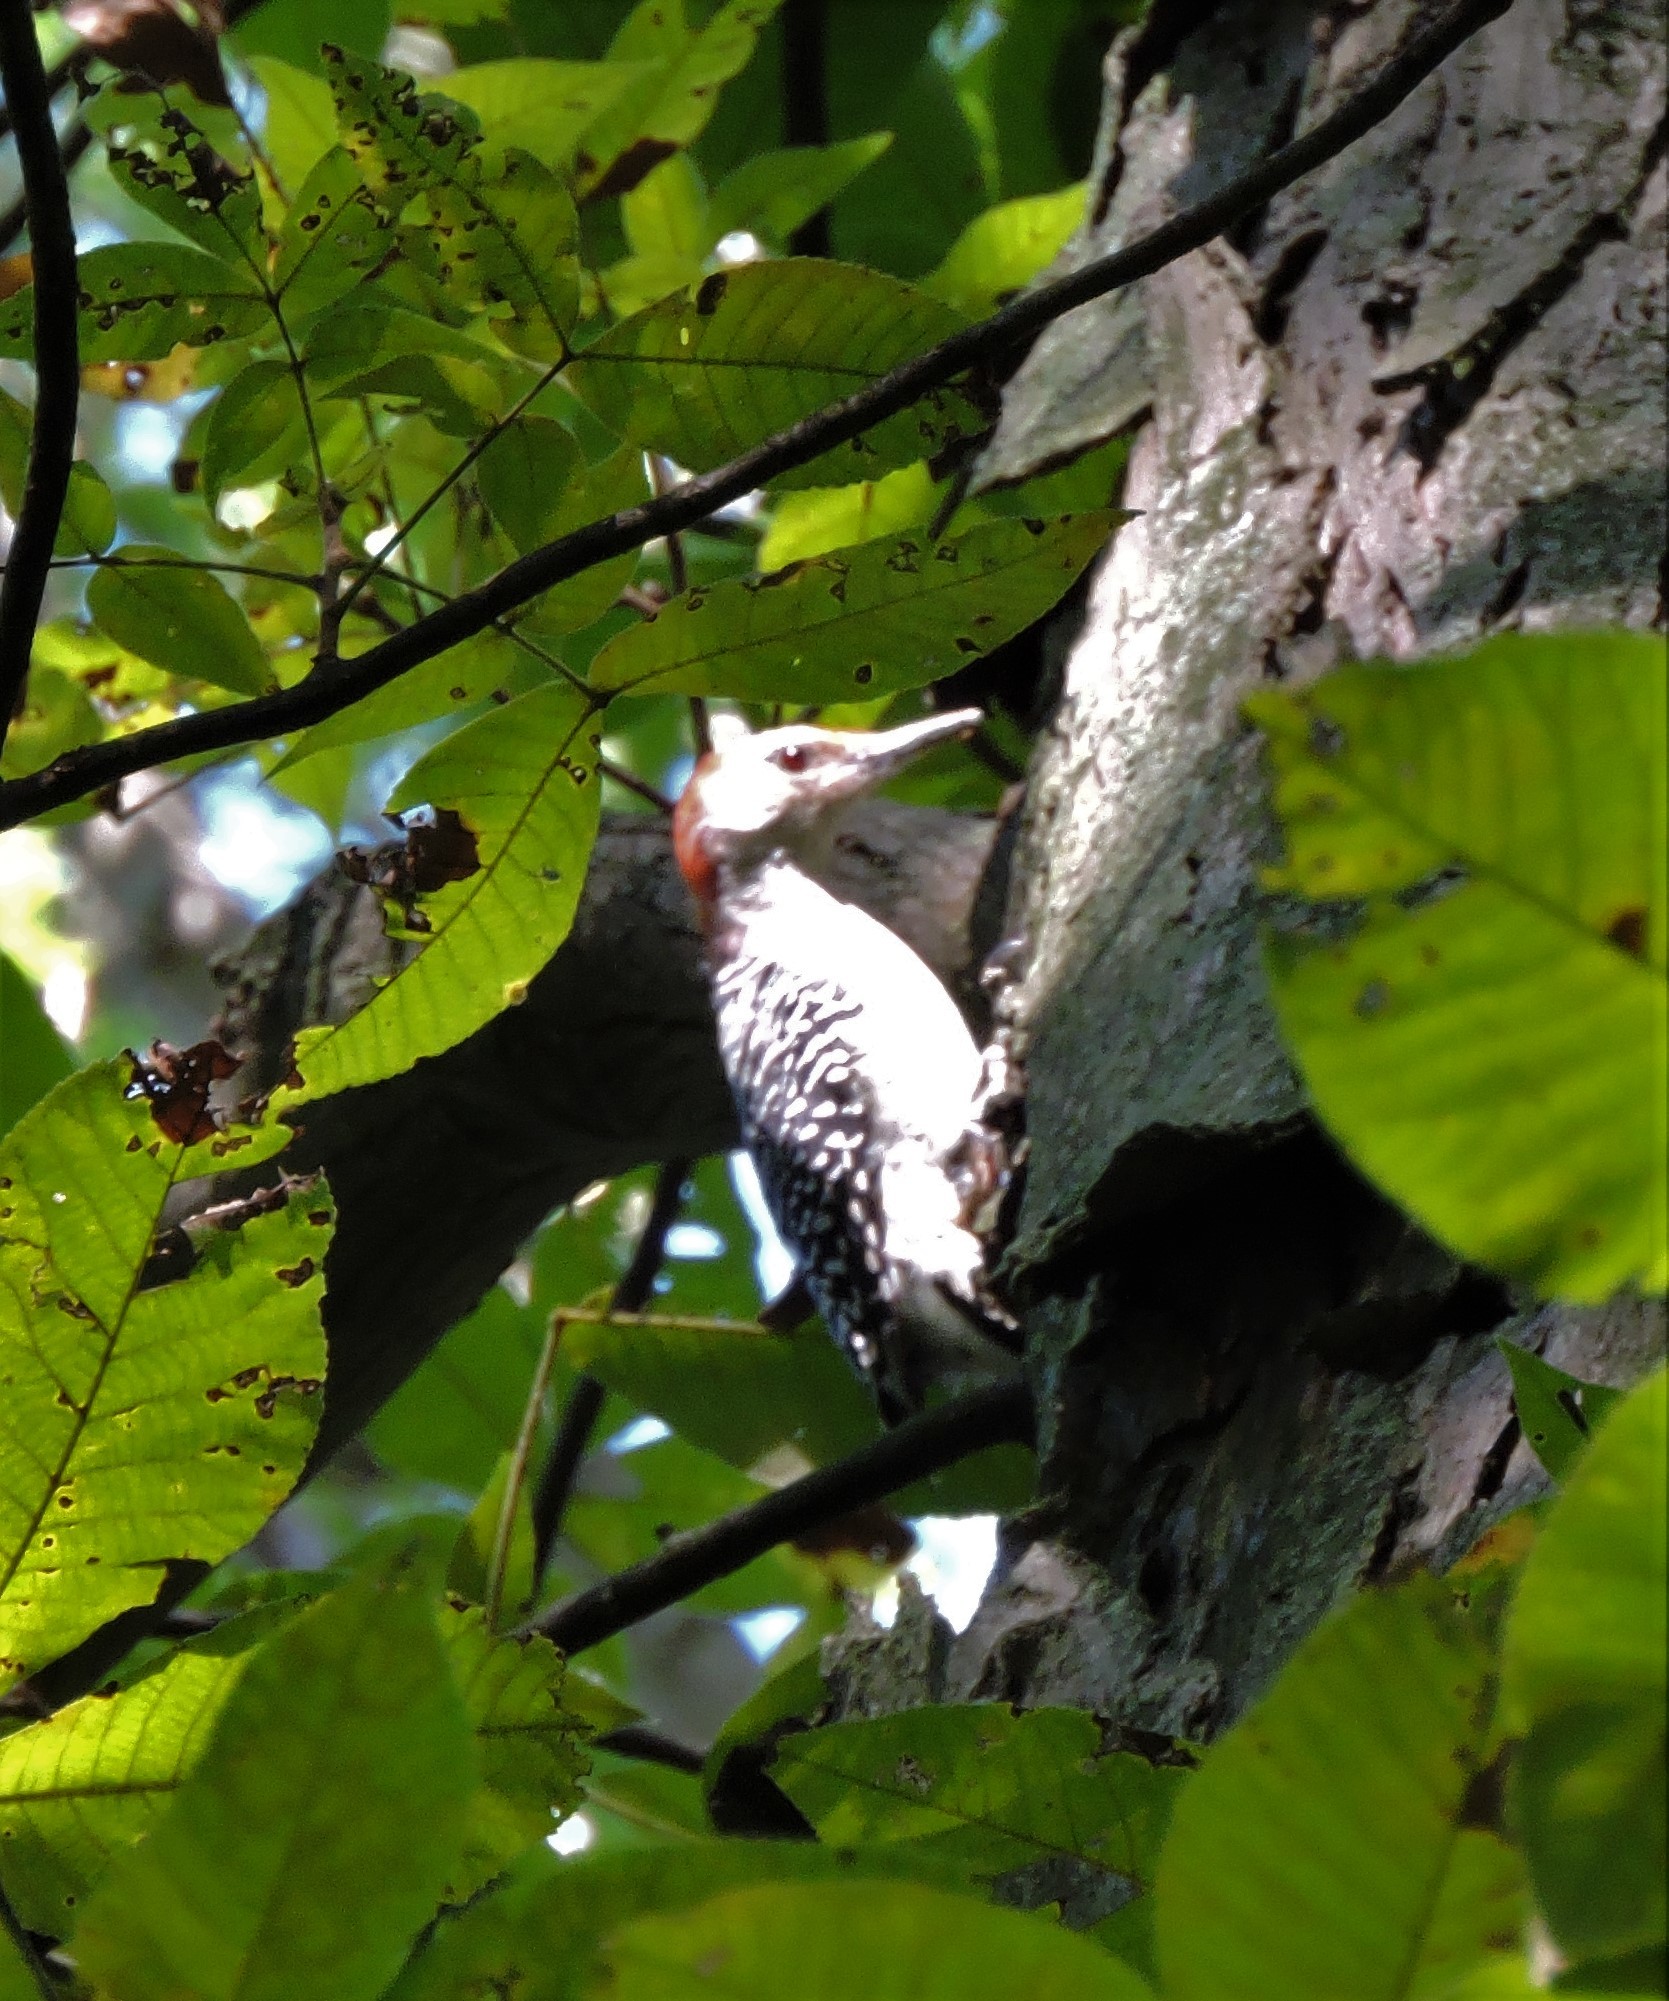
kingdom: Animalia
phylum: Chordata
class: Aves
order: Piciformes
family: Picidae
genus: Melanerpes
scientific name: Melanerpes carolinus
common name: Red-bellied woodpecker
